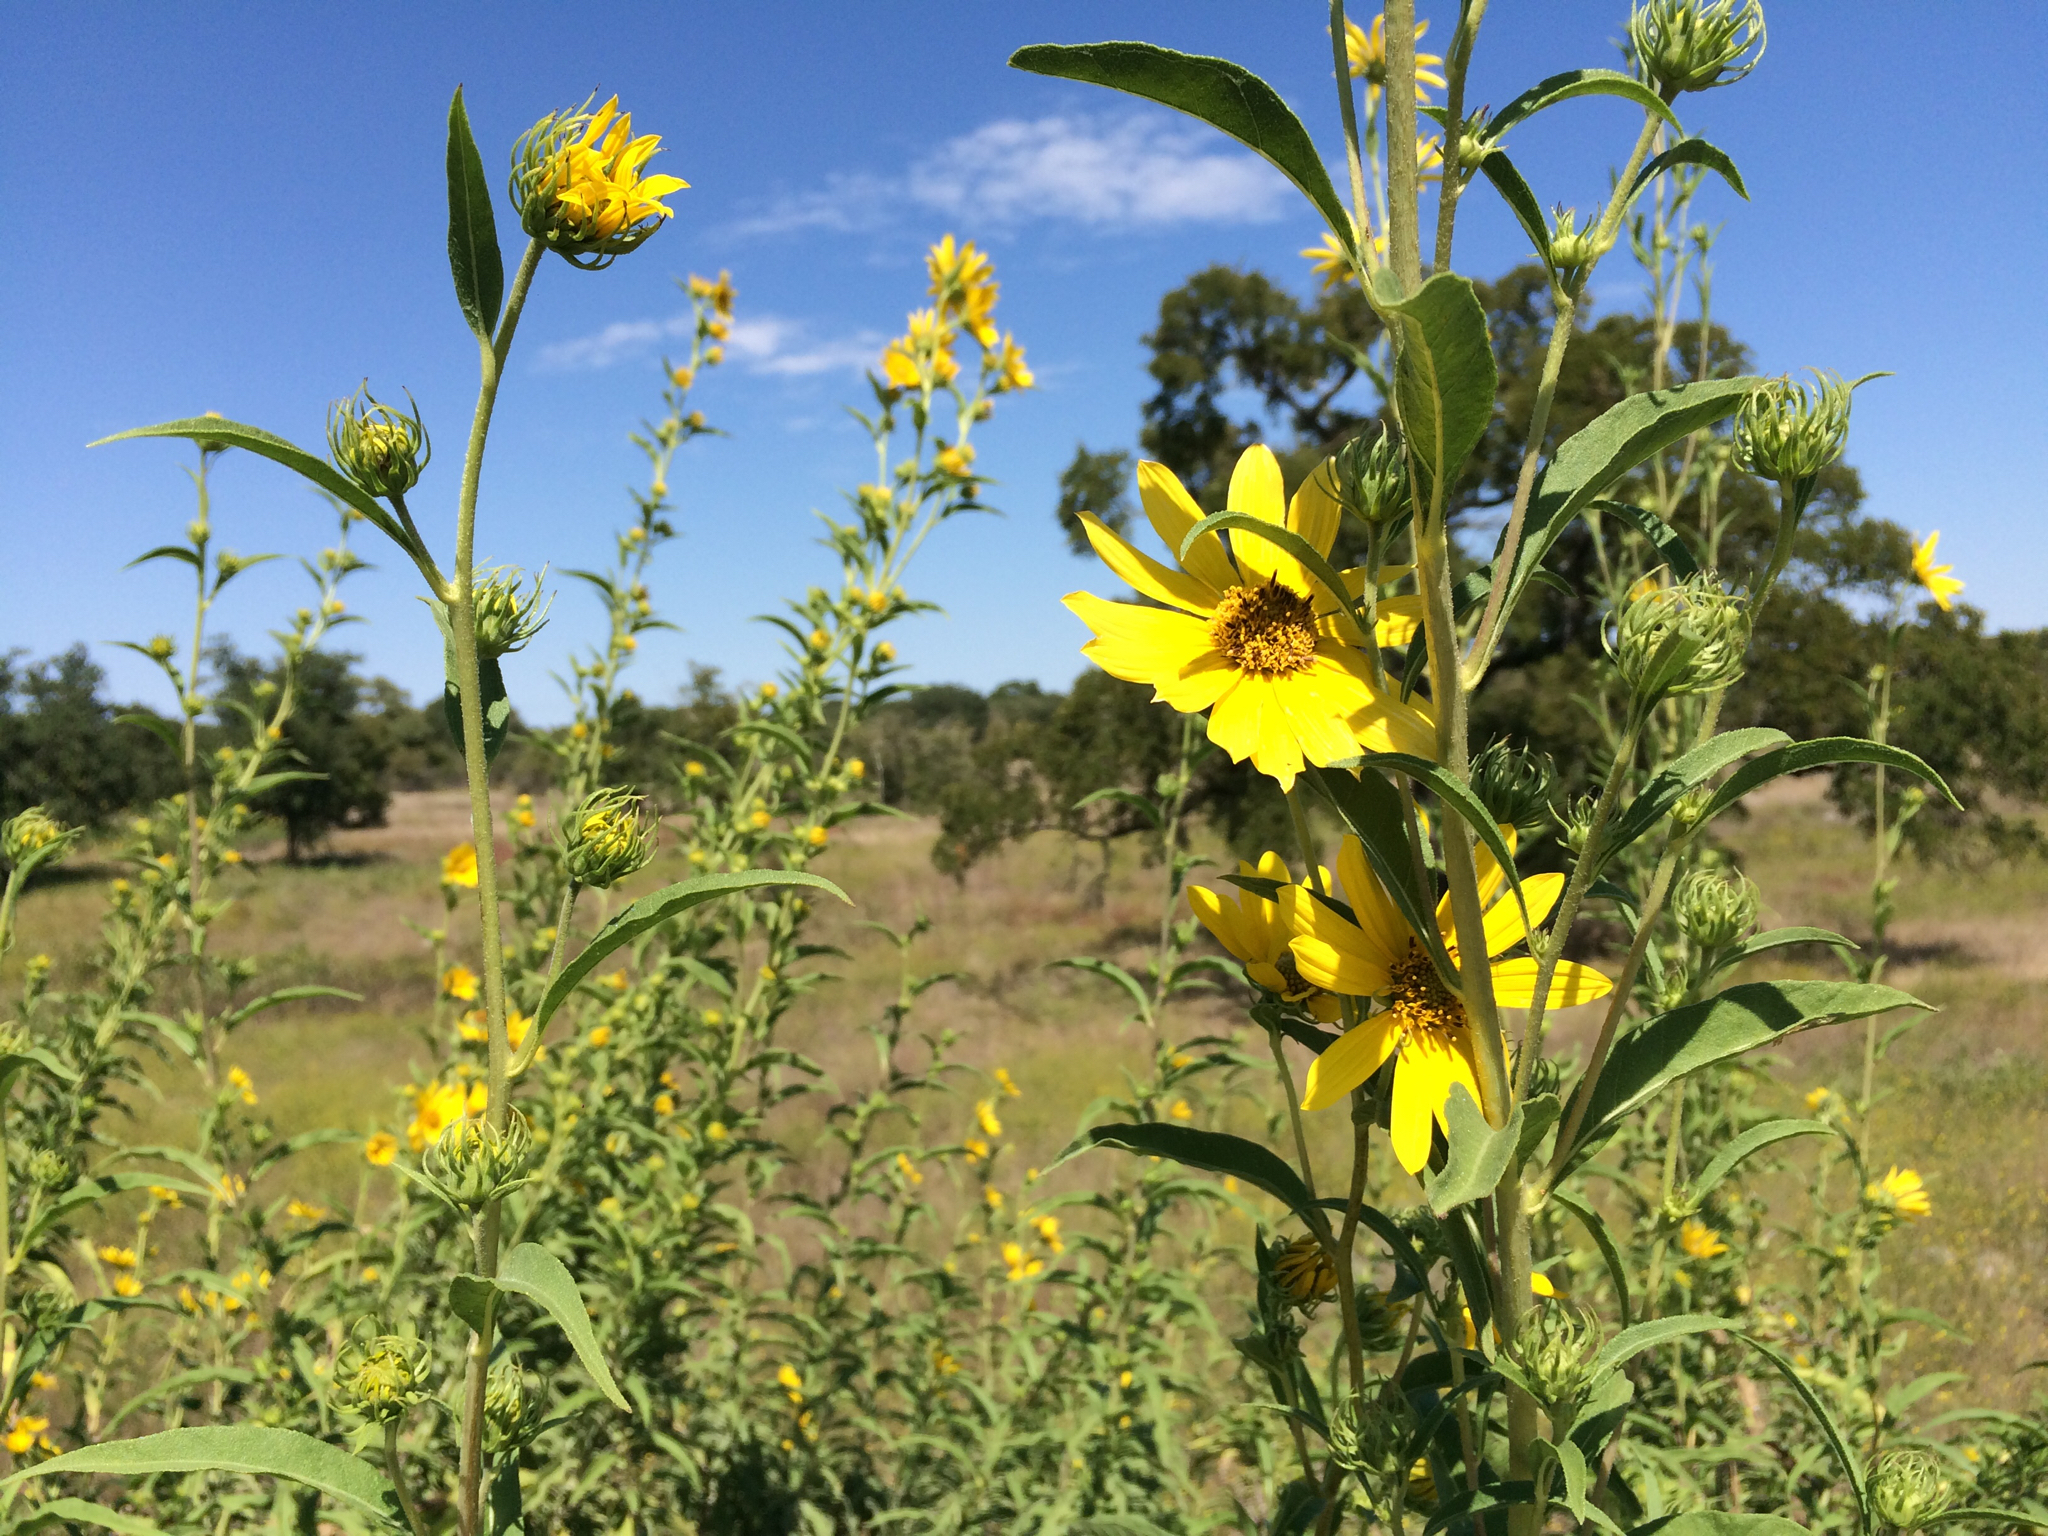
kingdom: Plantae
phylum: Tracheophyta
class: Magnoliopsida
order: Asterales
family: Asteraceae
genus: Helianthus
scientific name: Helianthus maximiliani
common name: Maximilian's sunflower
